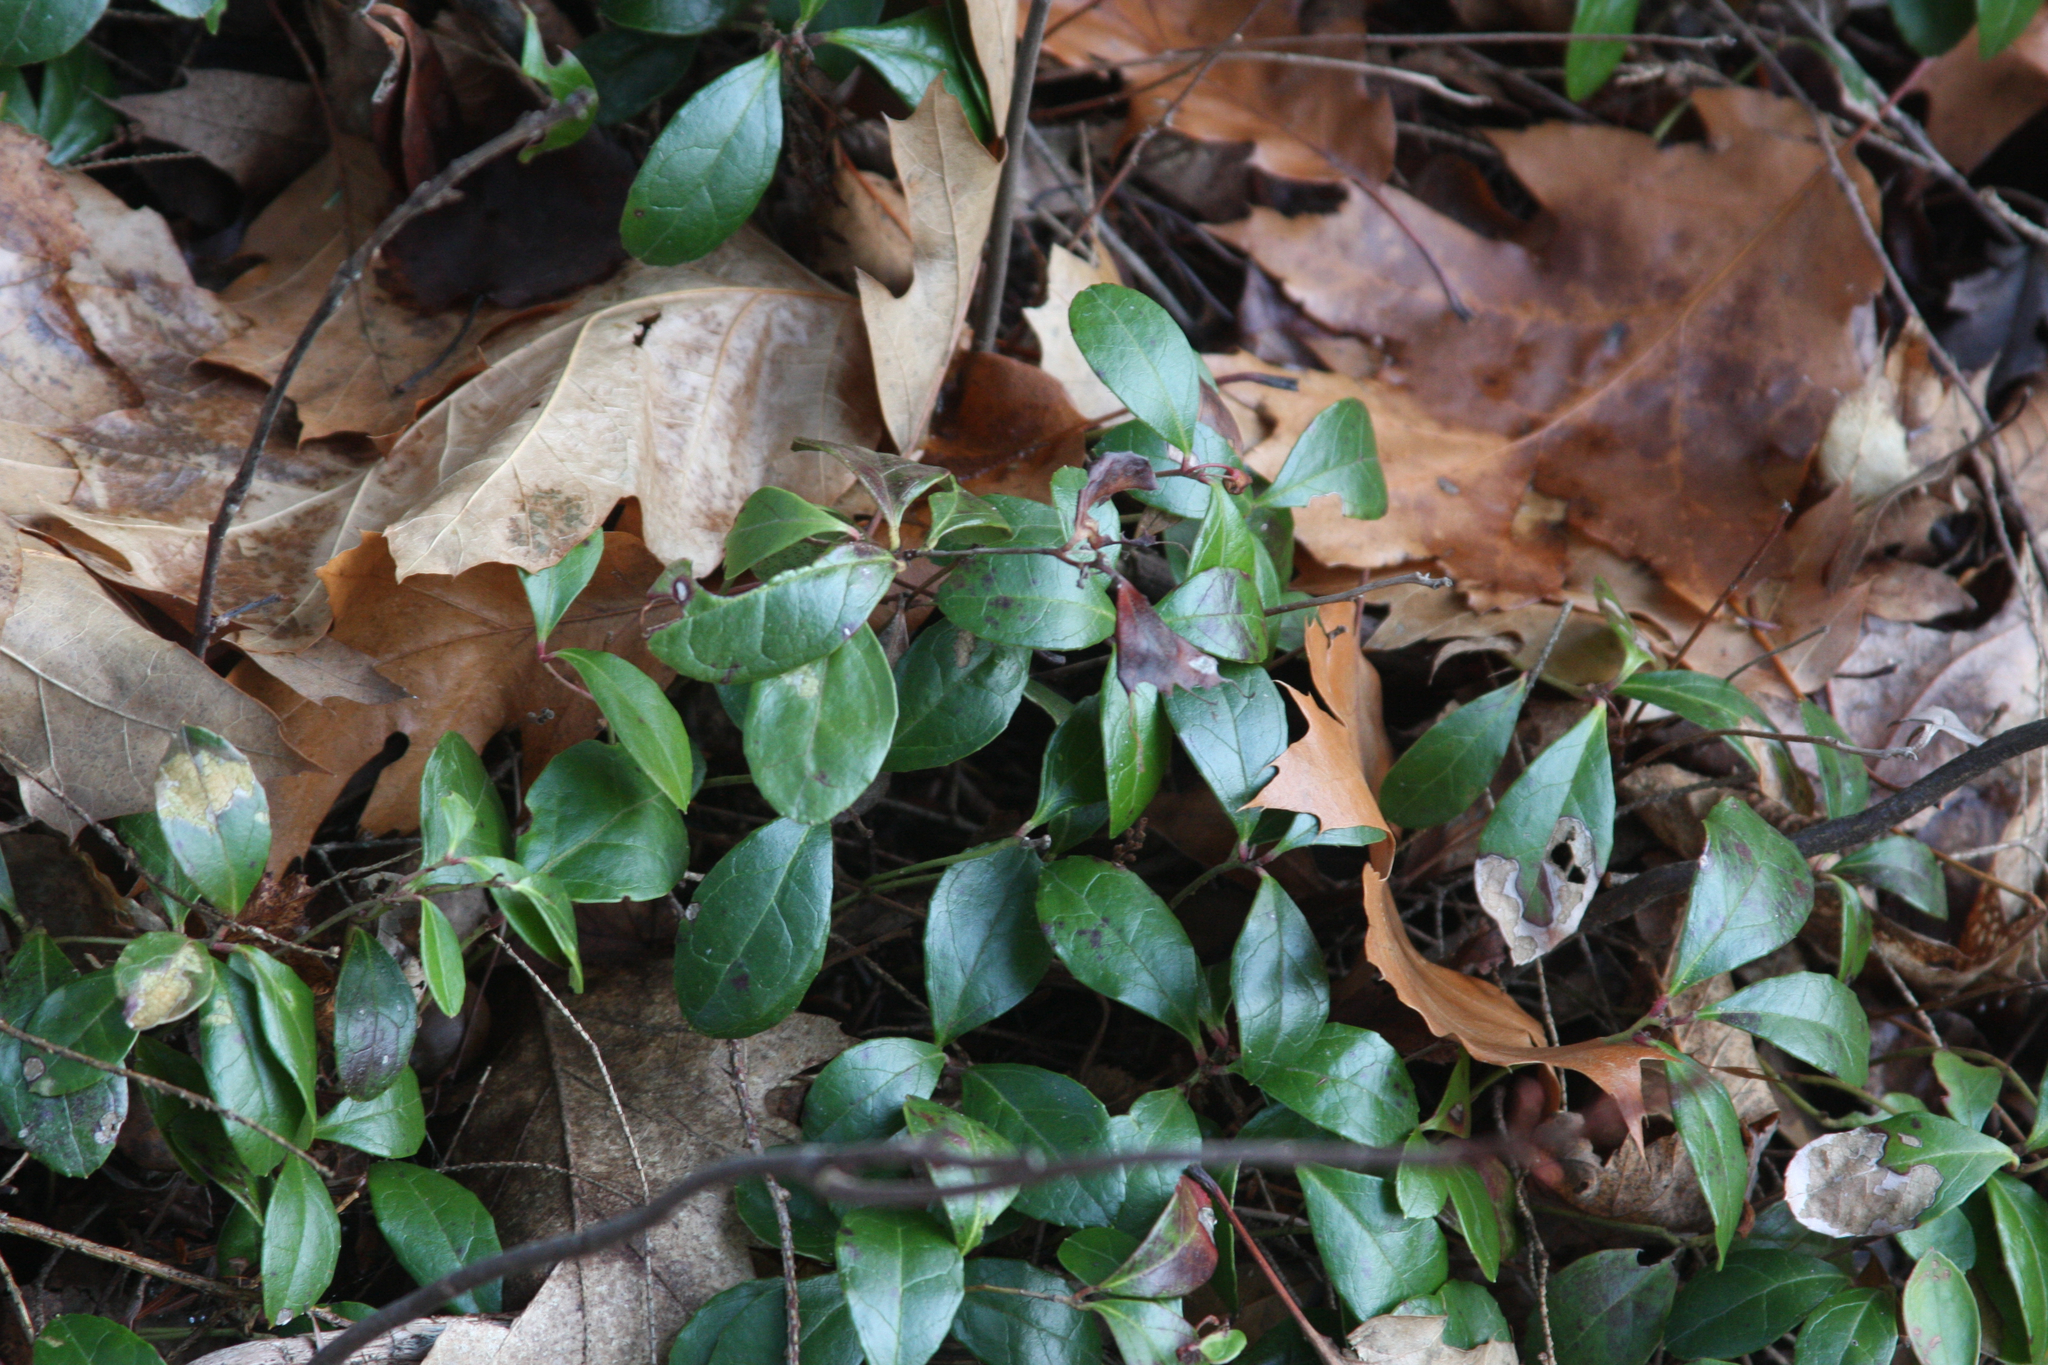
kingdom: Plantae
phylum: Tracheophyta
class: Magnoliopsida
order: Ericales
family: Ericaceae
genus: Gaultheria
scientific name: Gaultheria procumbens
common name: Checkerberry
